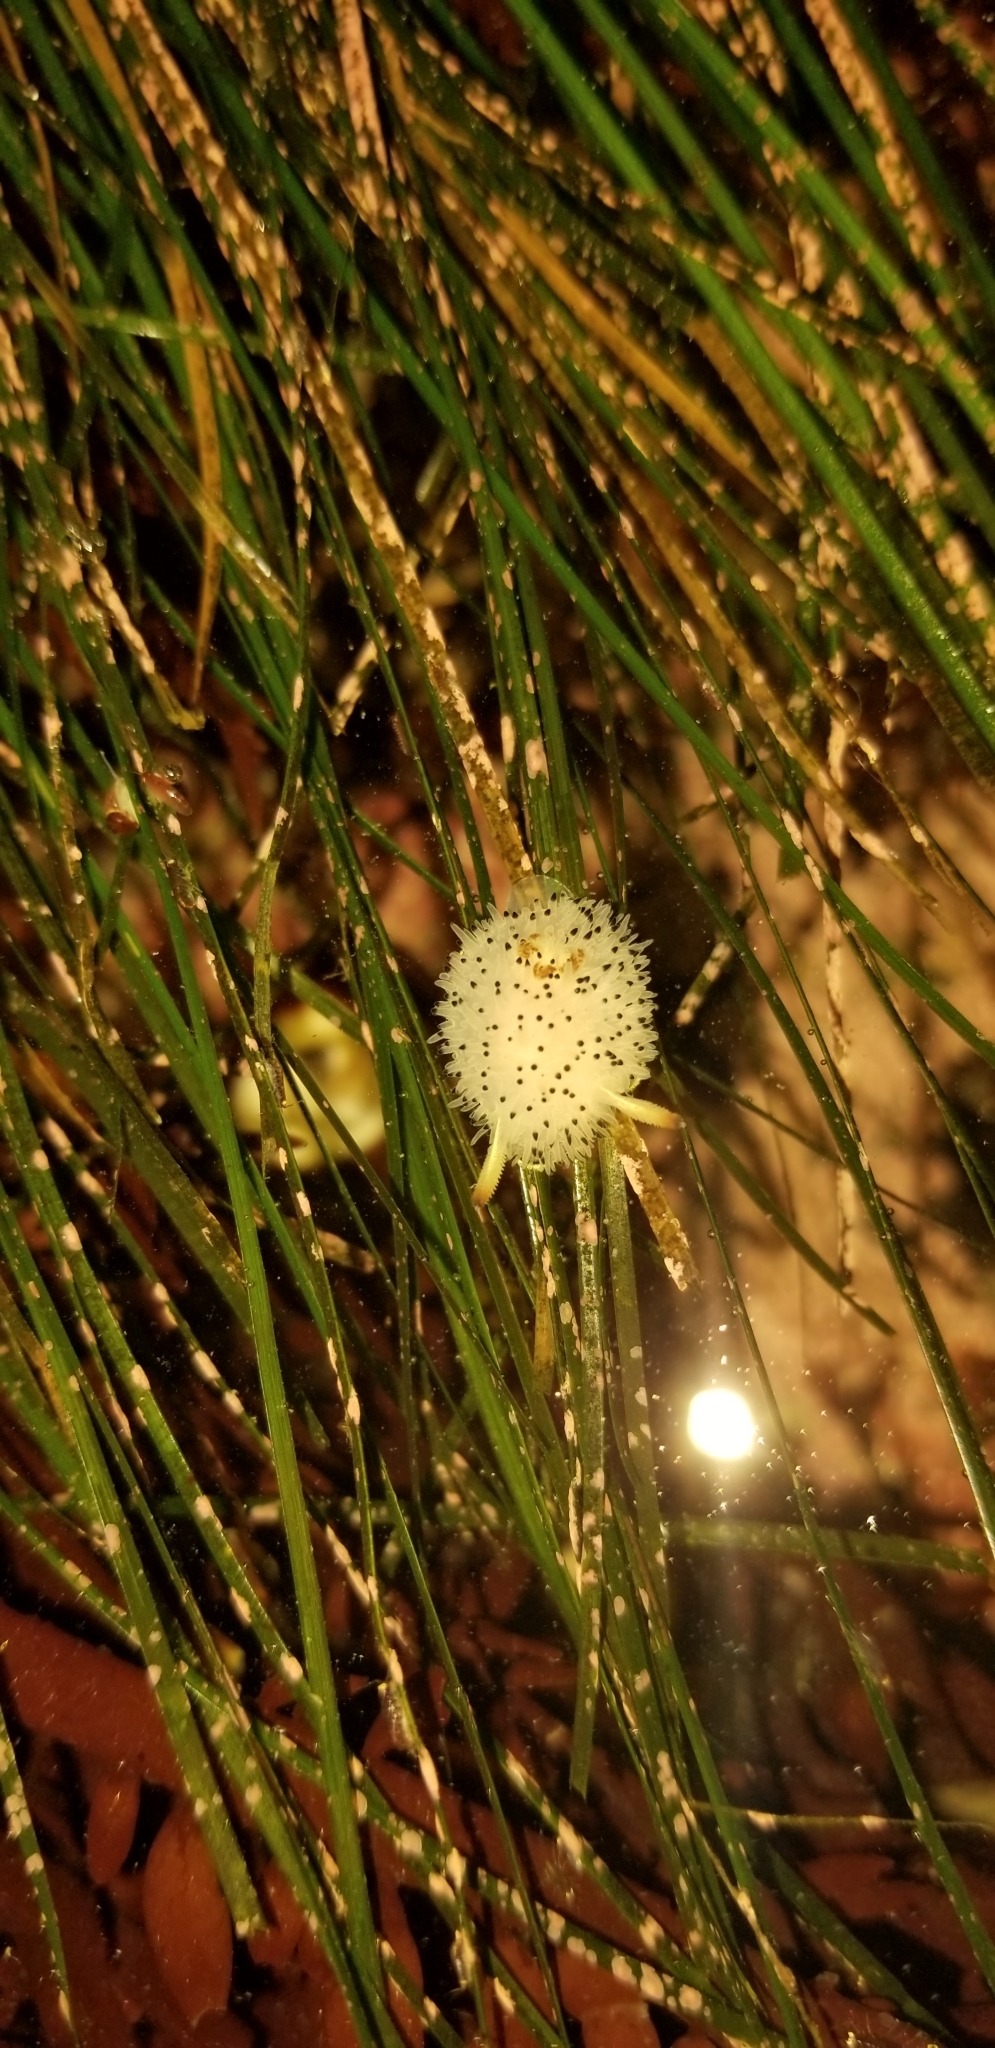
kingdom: Animalia
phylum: Mollusca
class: Gastropoda
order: Nudibranchia
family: Onchidorididae
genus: Acanthodoris
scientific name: Acanthodoris rhodoceras
